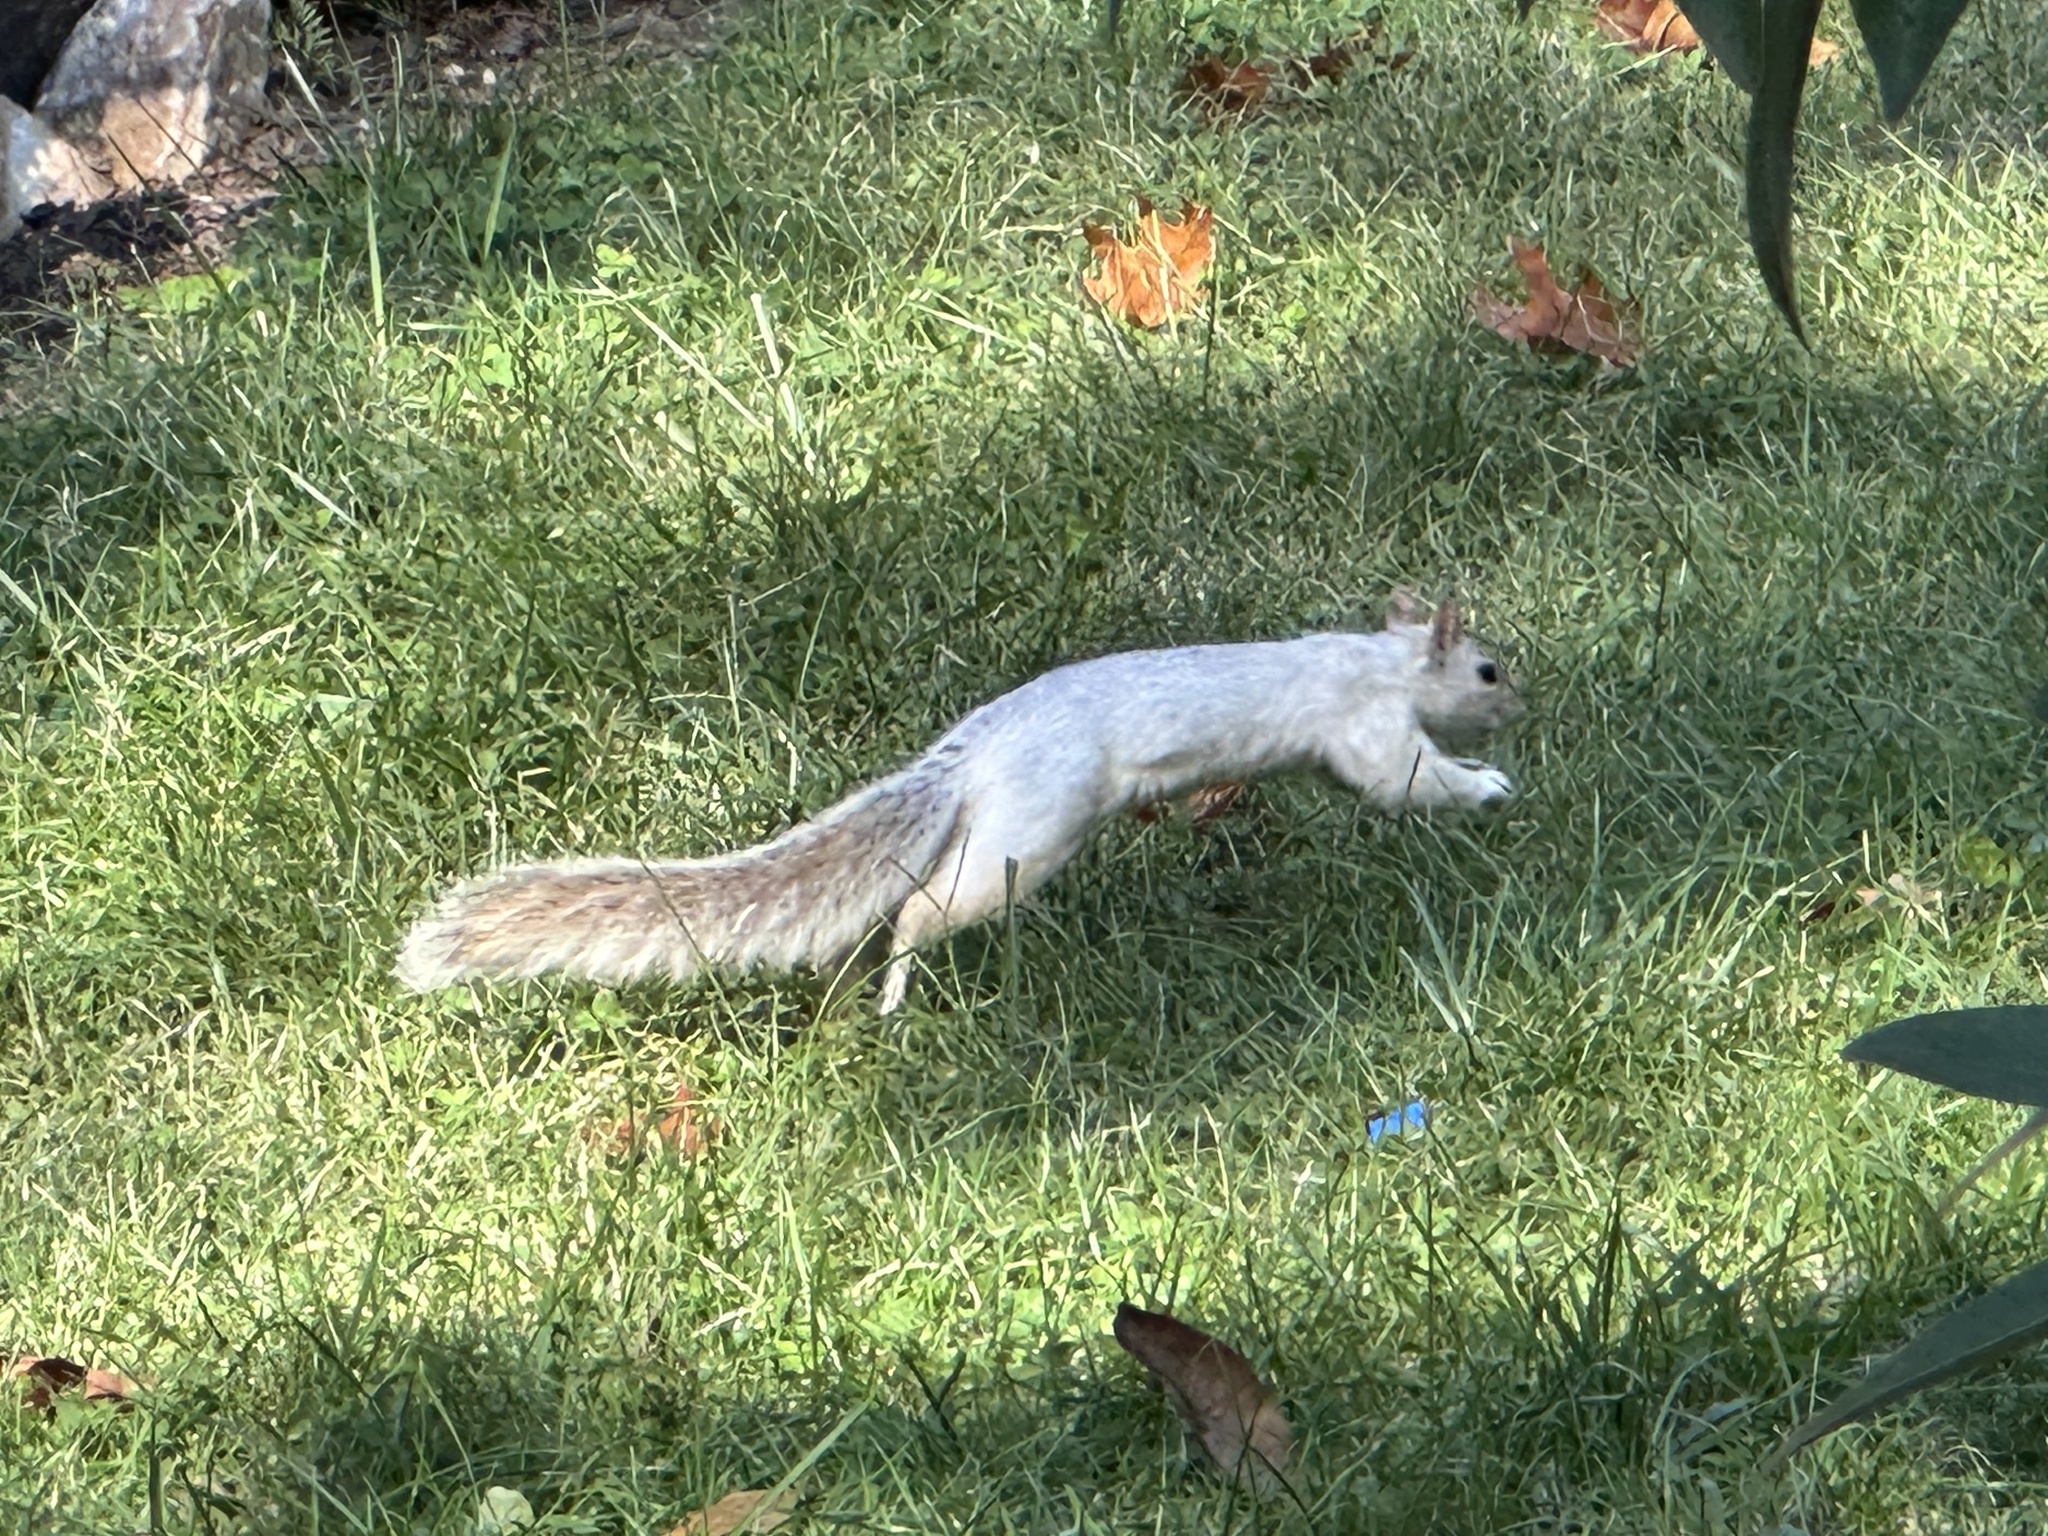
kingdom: Animalia
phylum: Chordata
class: Mammalia
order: Rodentia
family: Sciuridae
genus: Sciurus
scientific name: Sciurus carolinensis
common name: Eastern gray squirrel
